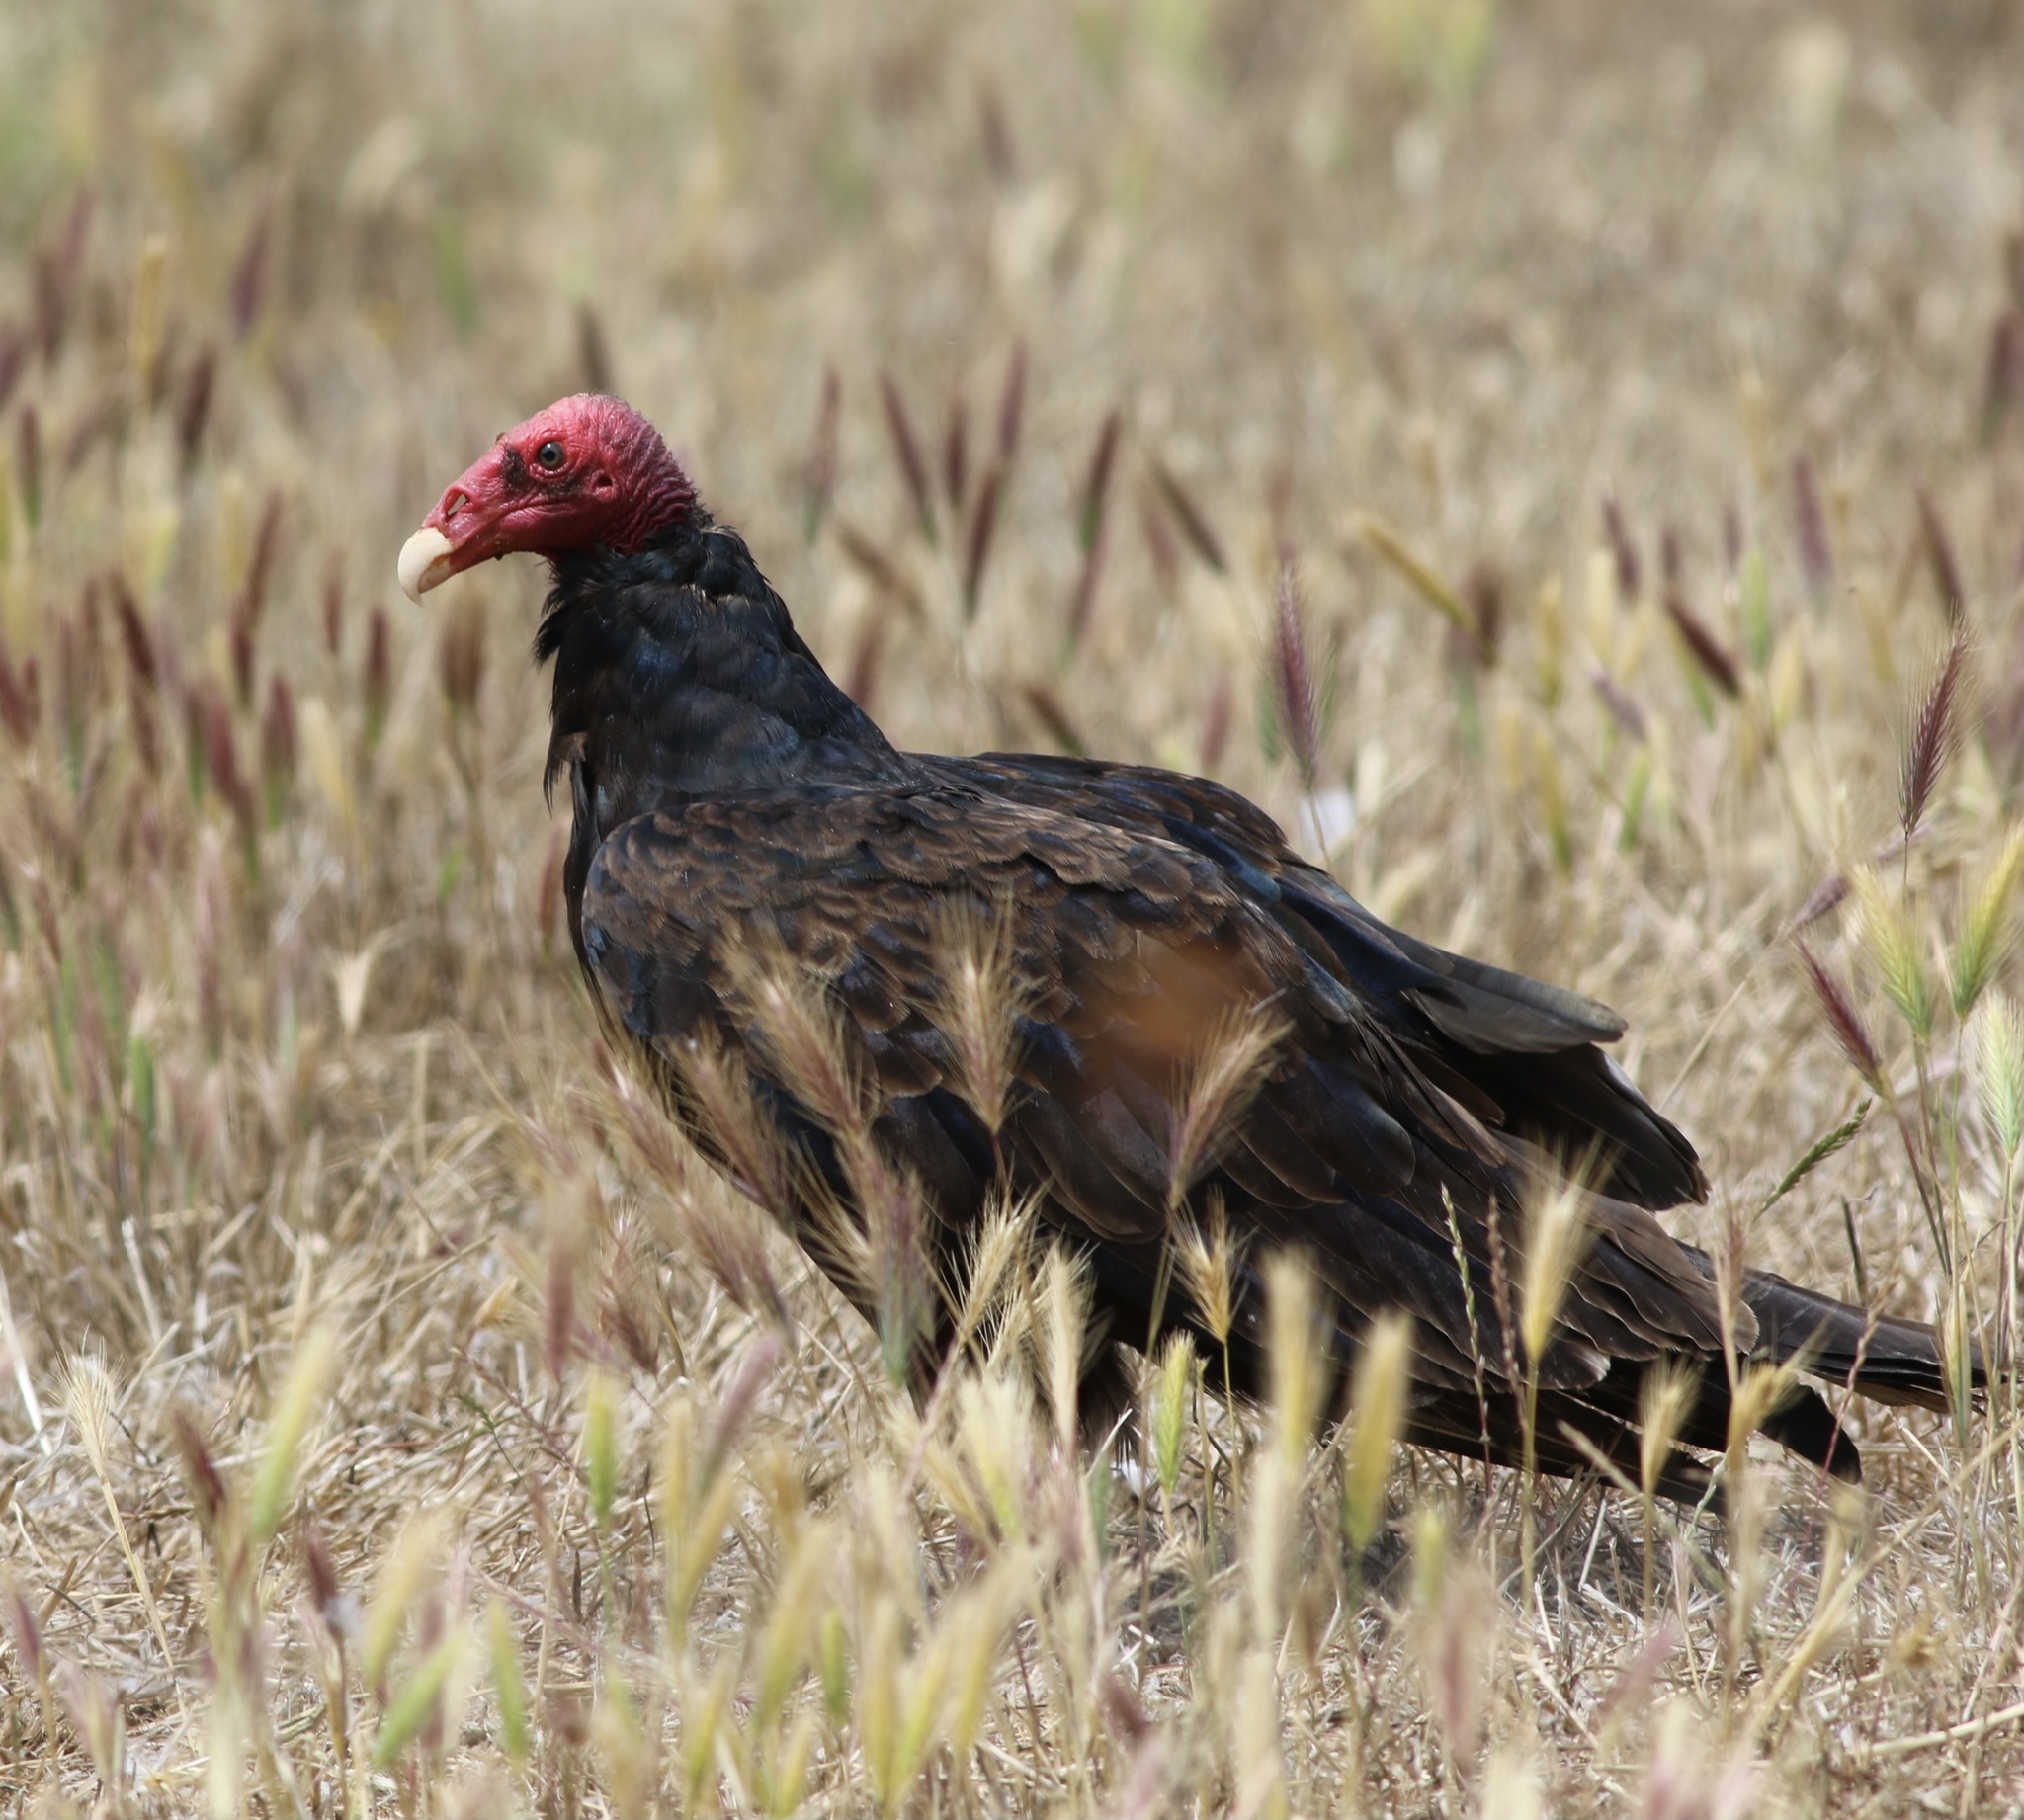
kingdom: Animalia
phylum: Chordata
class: Aves
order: Accipitriformes
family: Cathartidae
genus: Cathartes
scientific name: Cathartes aura
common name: Turkey vulture
